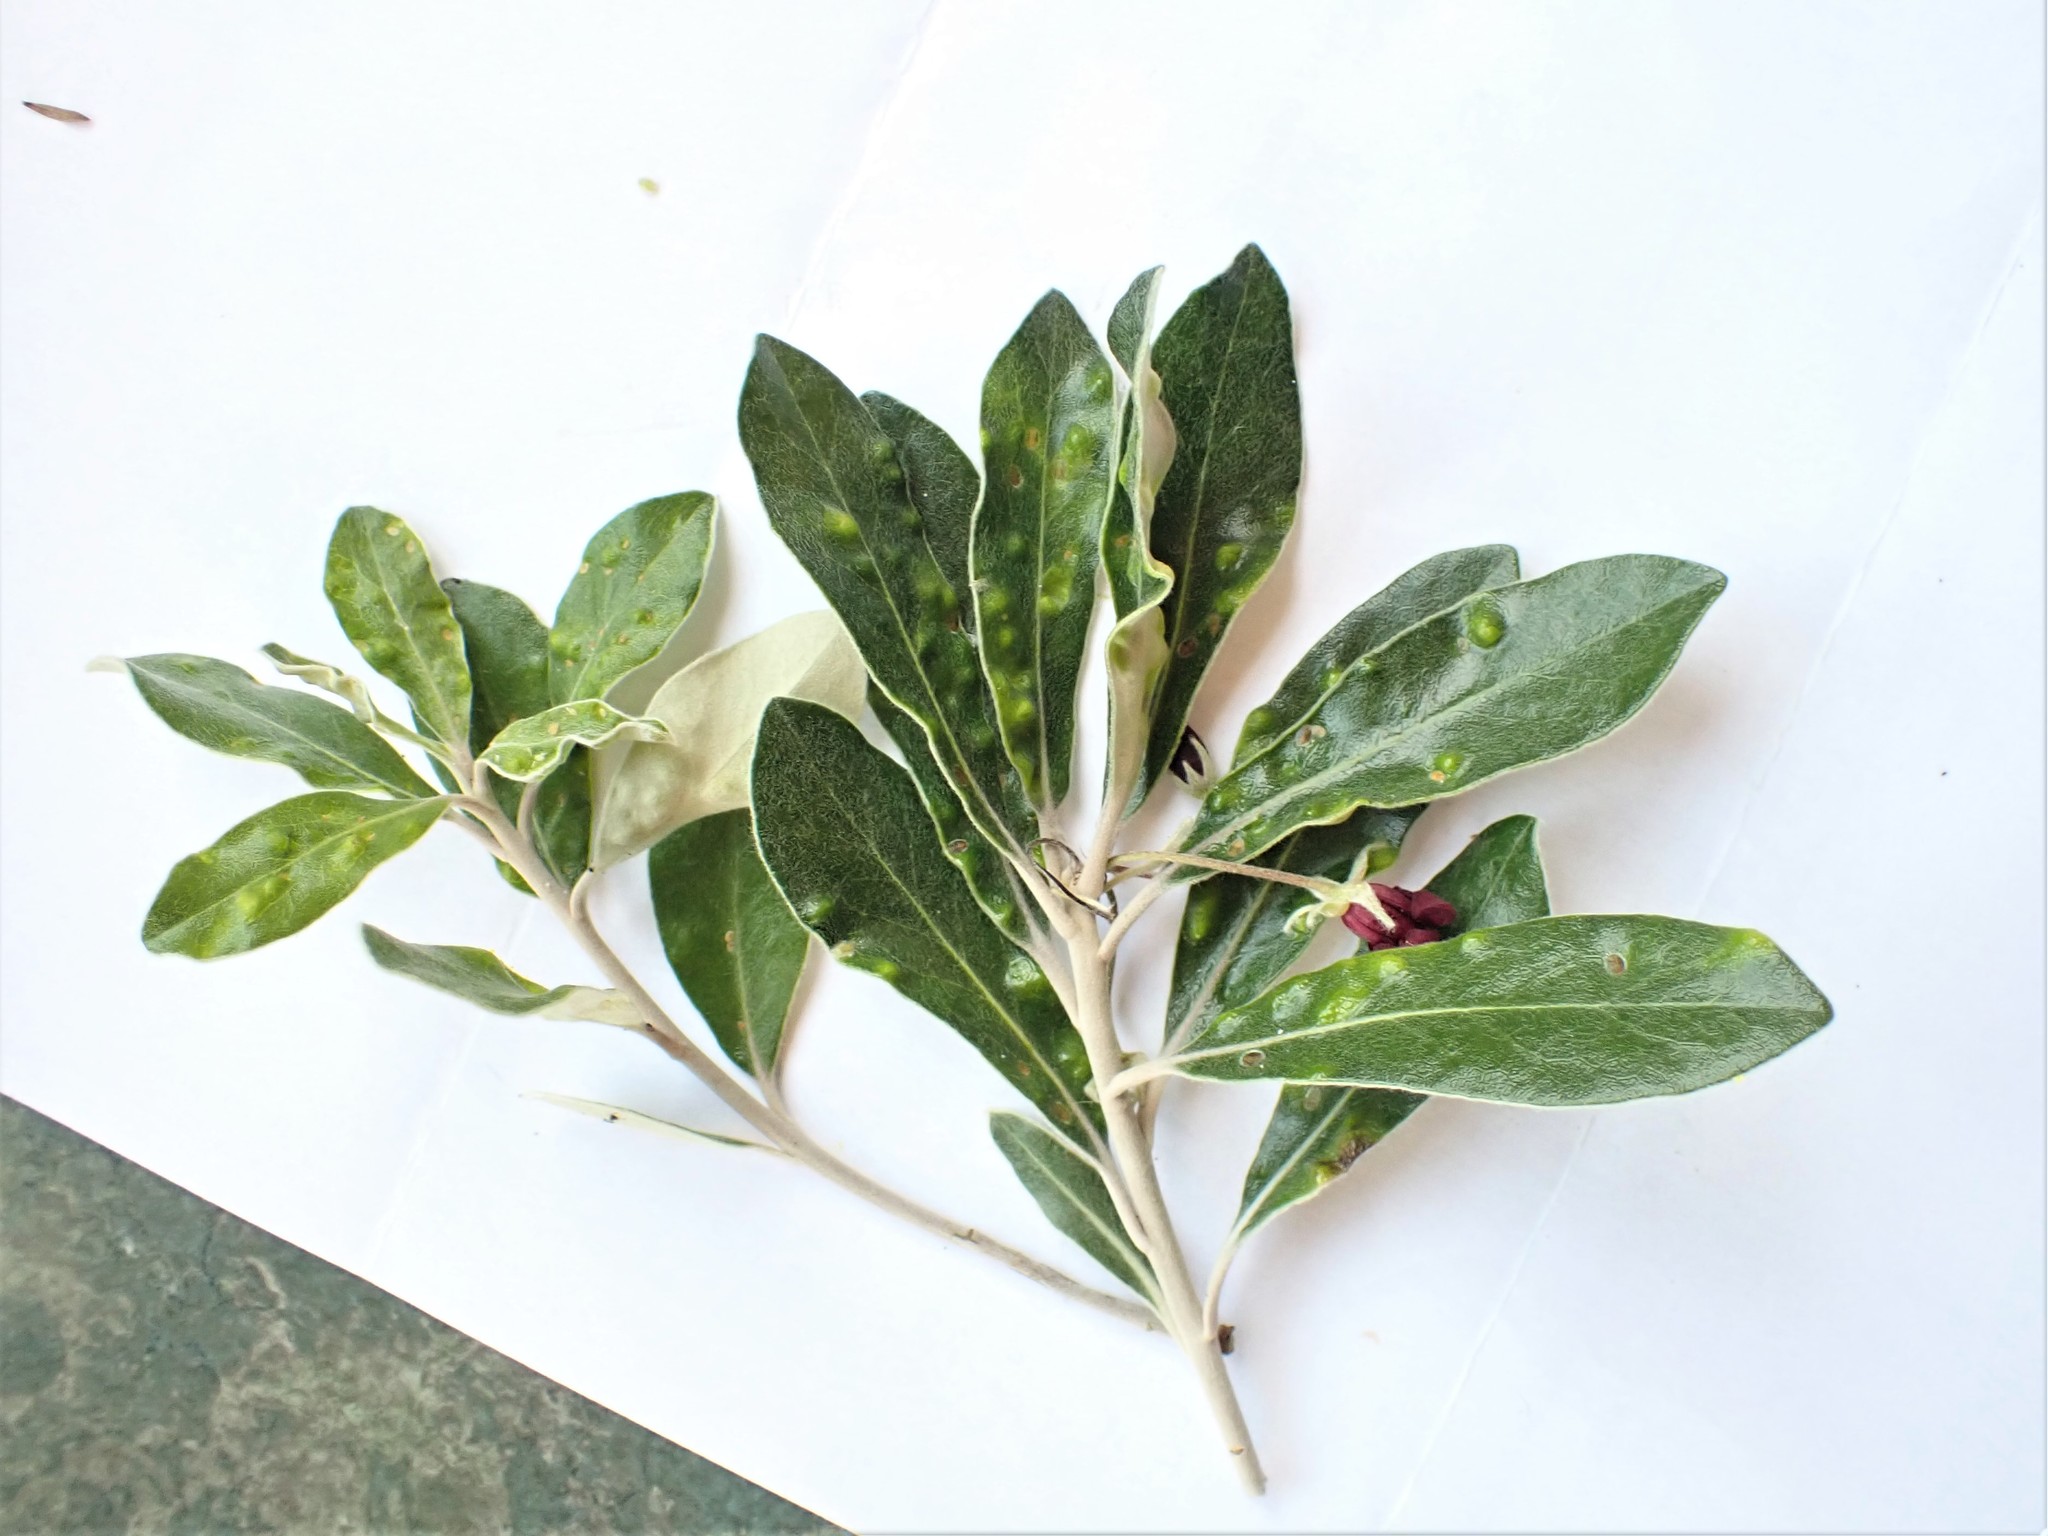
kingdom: Plantae
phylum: Tracheophyta
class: Magnoliopsida
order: Apiales
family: Pittosporaceae
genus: Pittosporum
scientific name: Pittosporum crassifolium
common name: Karo
